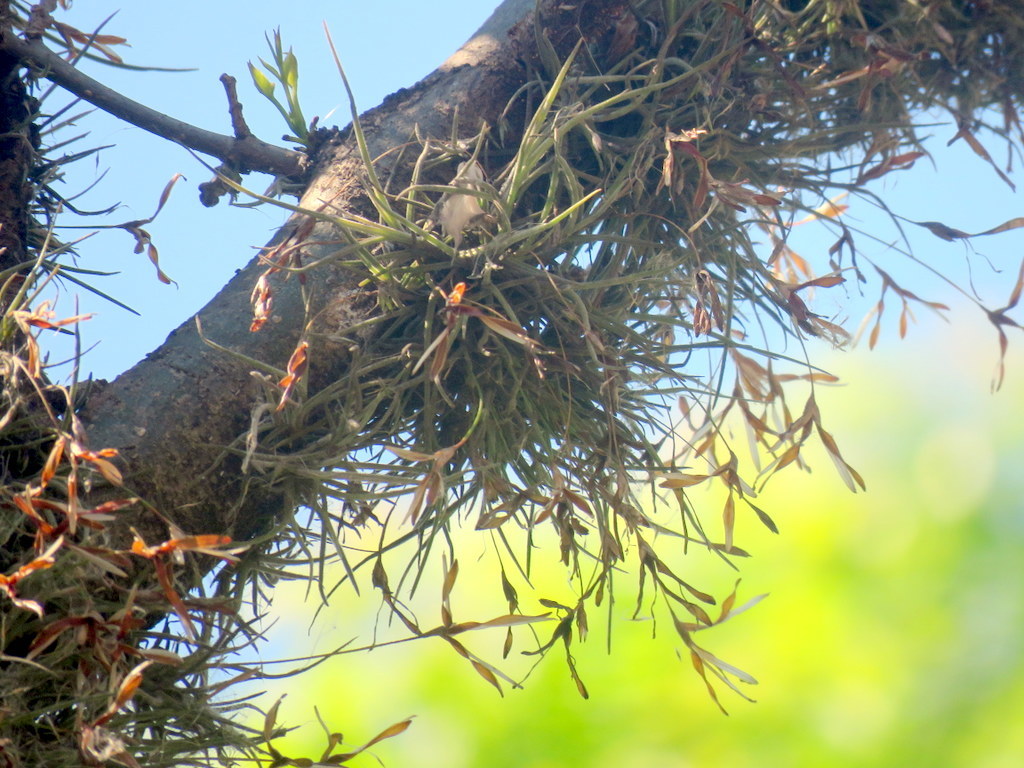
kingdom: Plantae
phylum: Tracheophyta
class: Liliopsida
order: Poales
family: Bromeliaceae
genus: Tillandsia
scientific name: Tillandsia recurvata
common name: Small ballmoss
